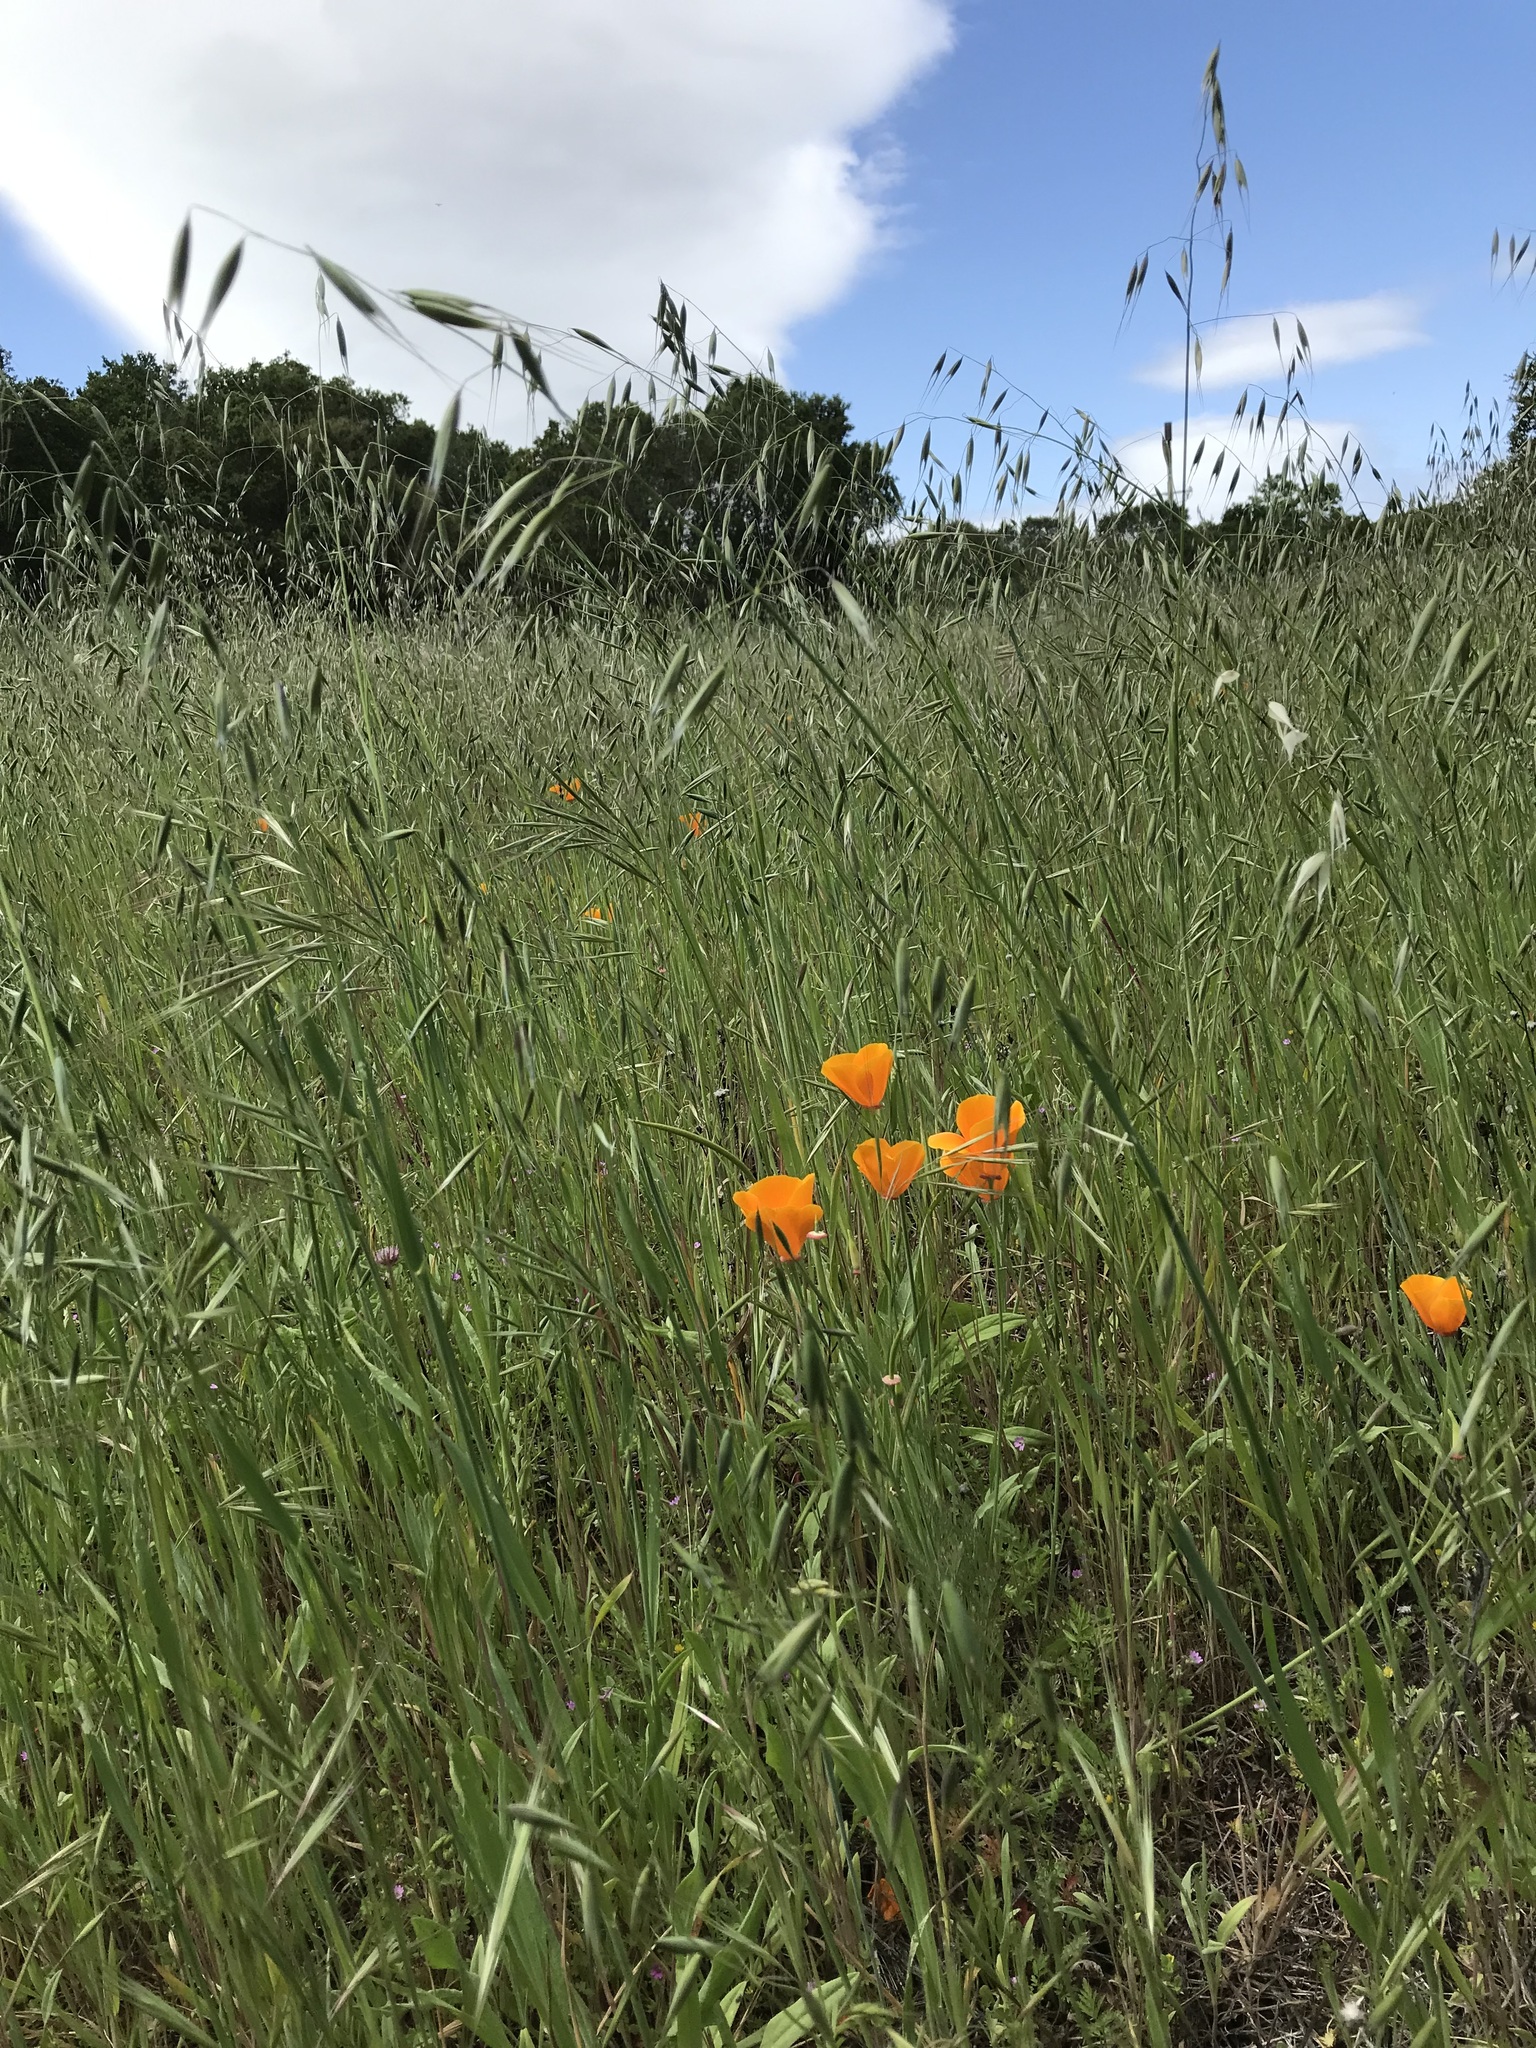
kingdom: Plantae
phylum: Tracheophyta
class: Magnoliopsida
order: Ranunculales
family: Papaveraceae
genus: Eschscholzia
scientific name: Eschscholzia californica
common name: California poppy
